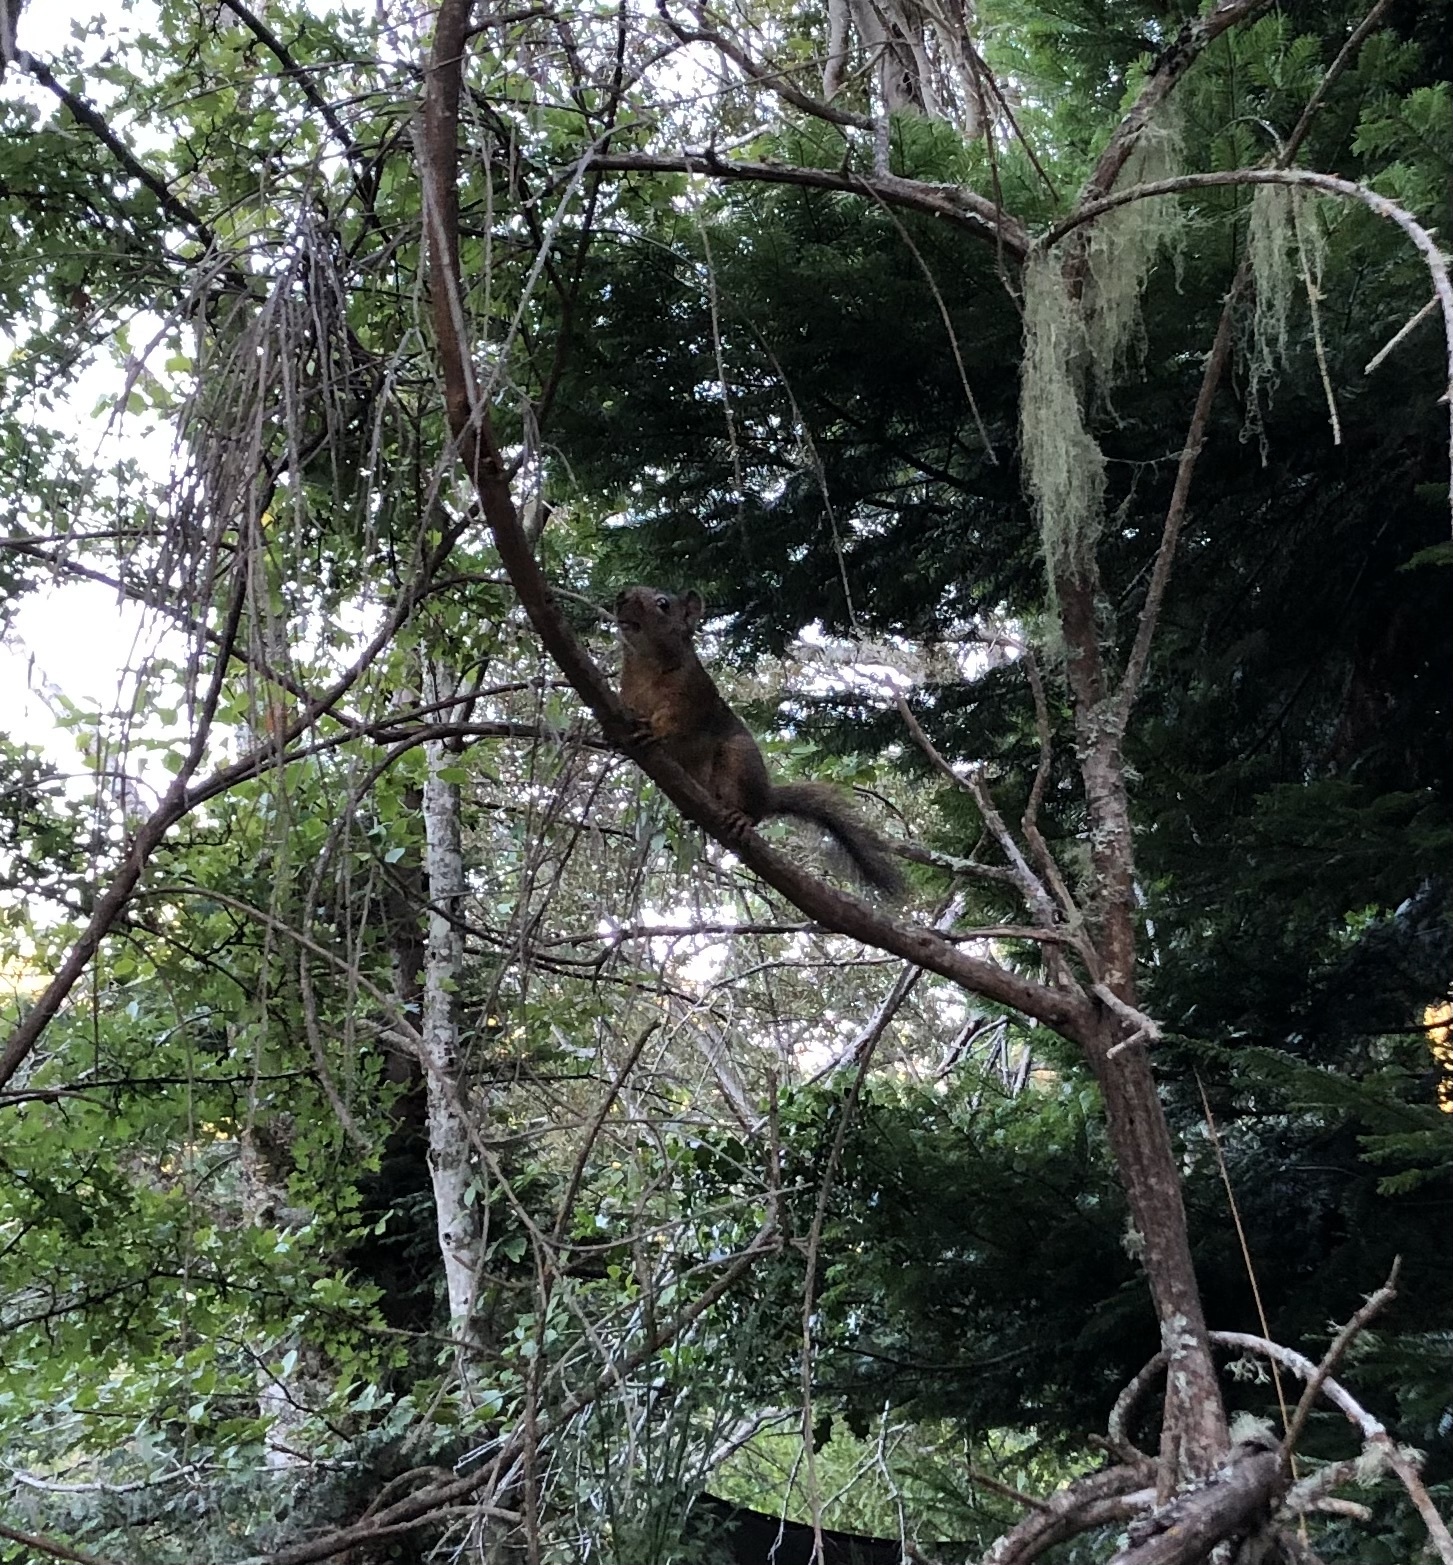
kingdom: Animalia
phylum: Chordata
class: Mammalia
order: Rodentia
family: Sciuridae
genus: Tamiasciurus
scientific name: Tamiasciurus hudsonicus
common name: Red squirrel
